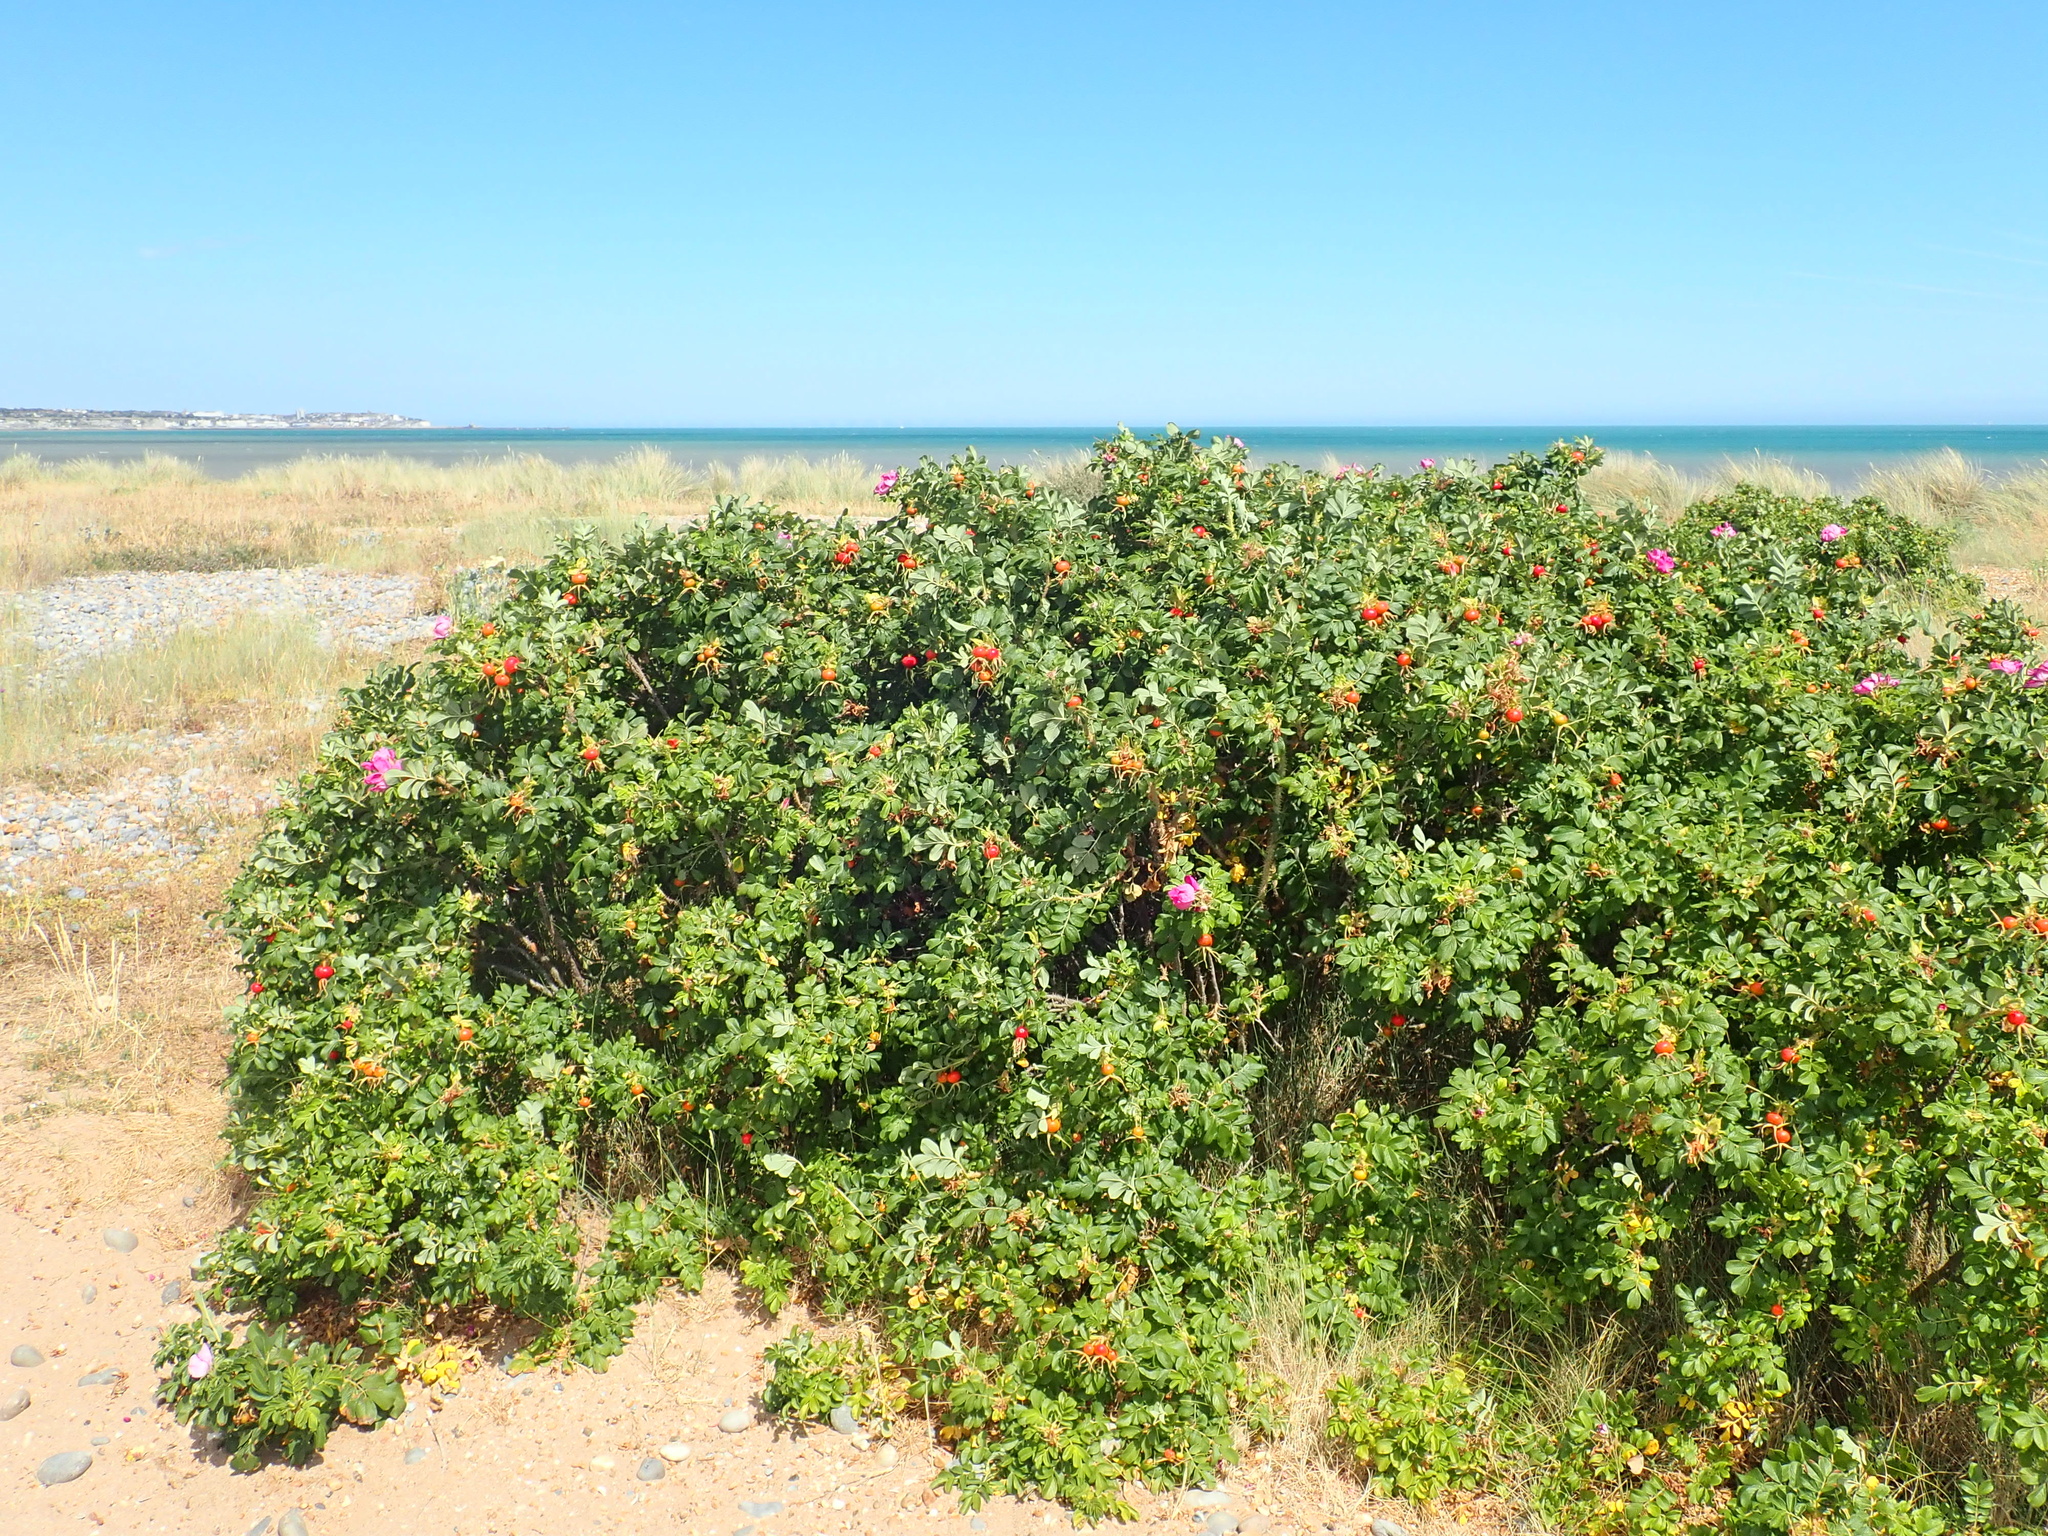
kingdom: Plantae
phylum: Tracheophyta
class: Magnoliopsida
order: Rosales
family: Rosaceae
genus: Rosa
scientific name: Rosa rugosa
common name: Japanese rose
